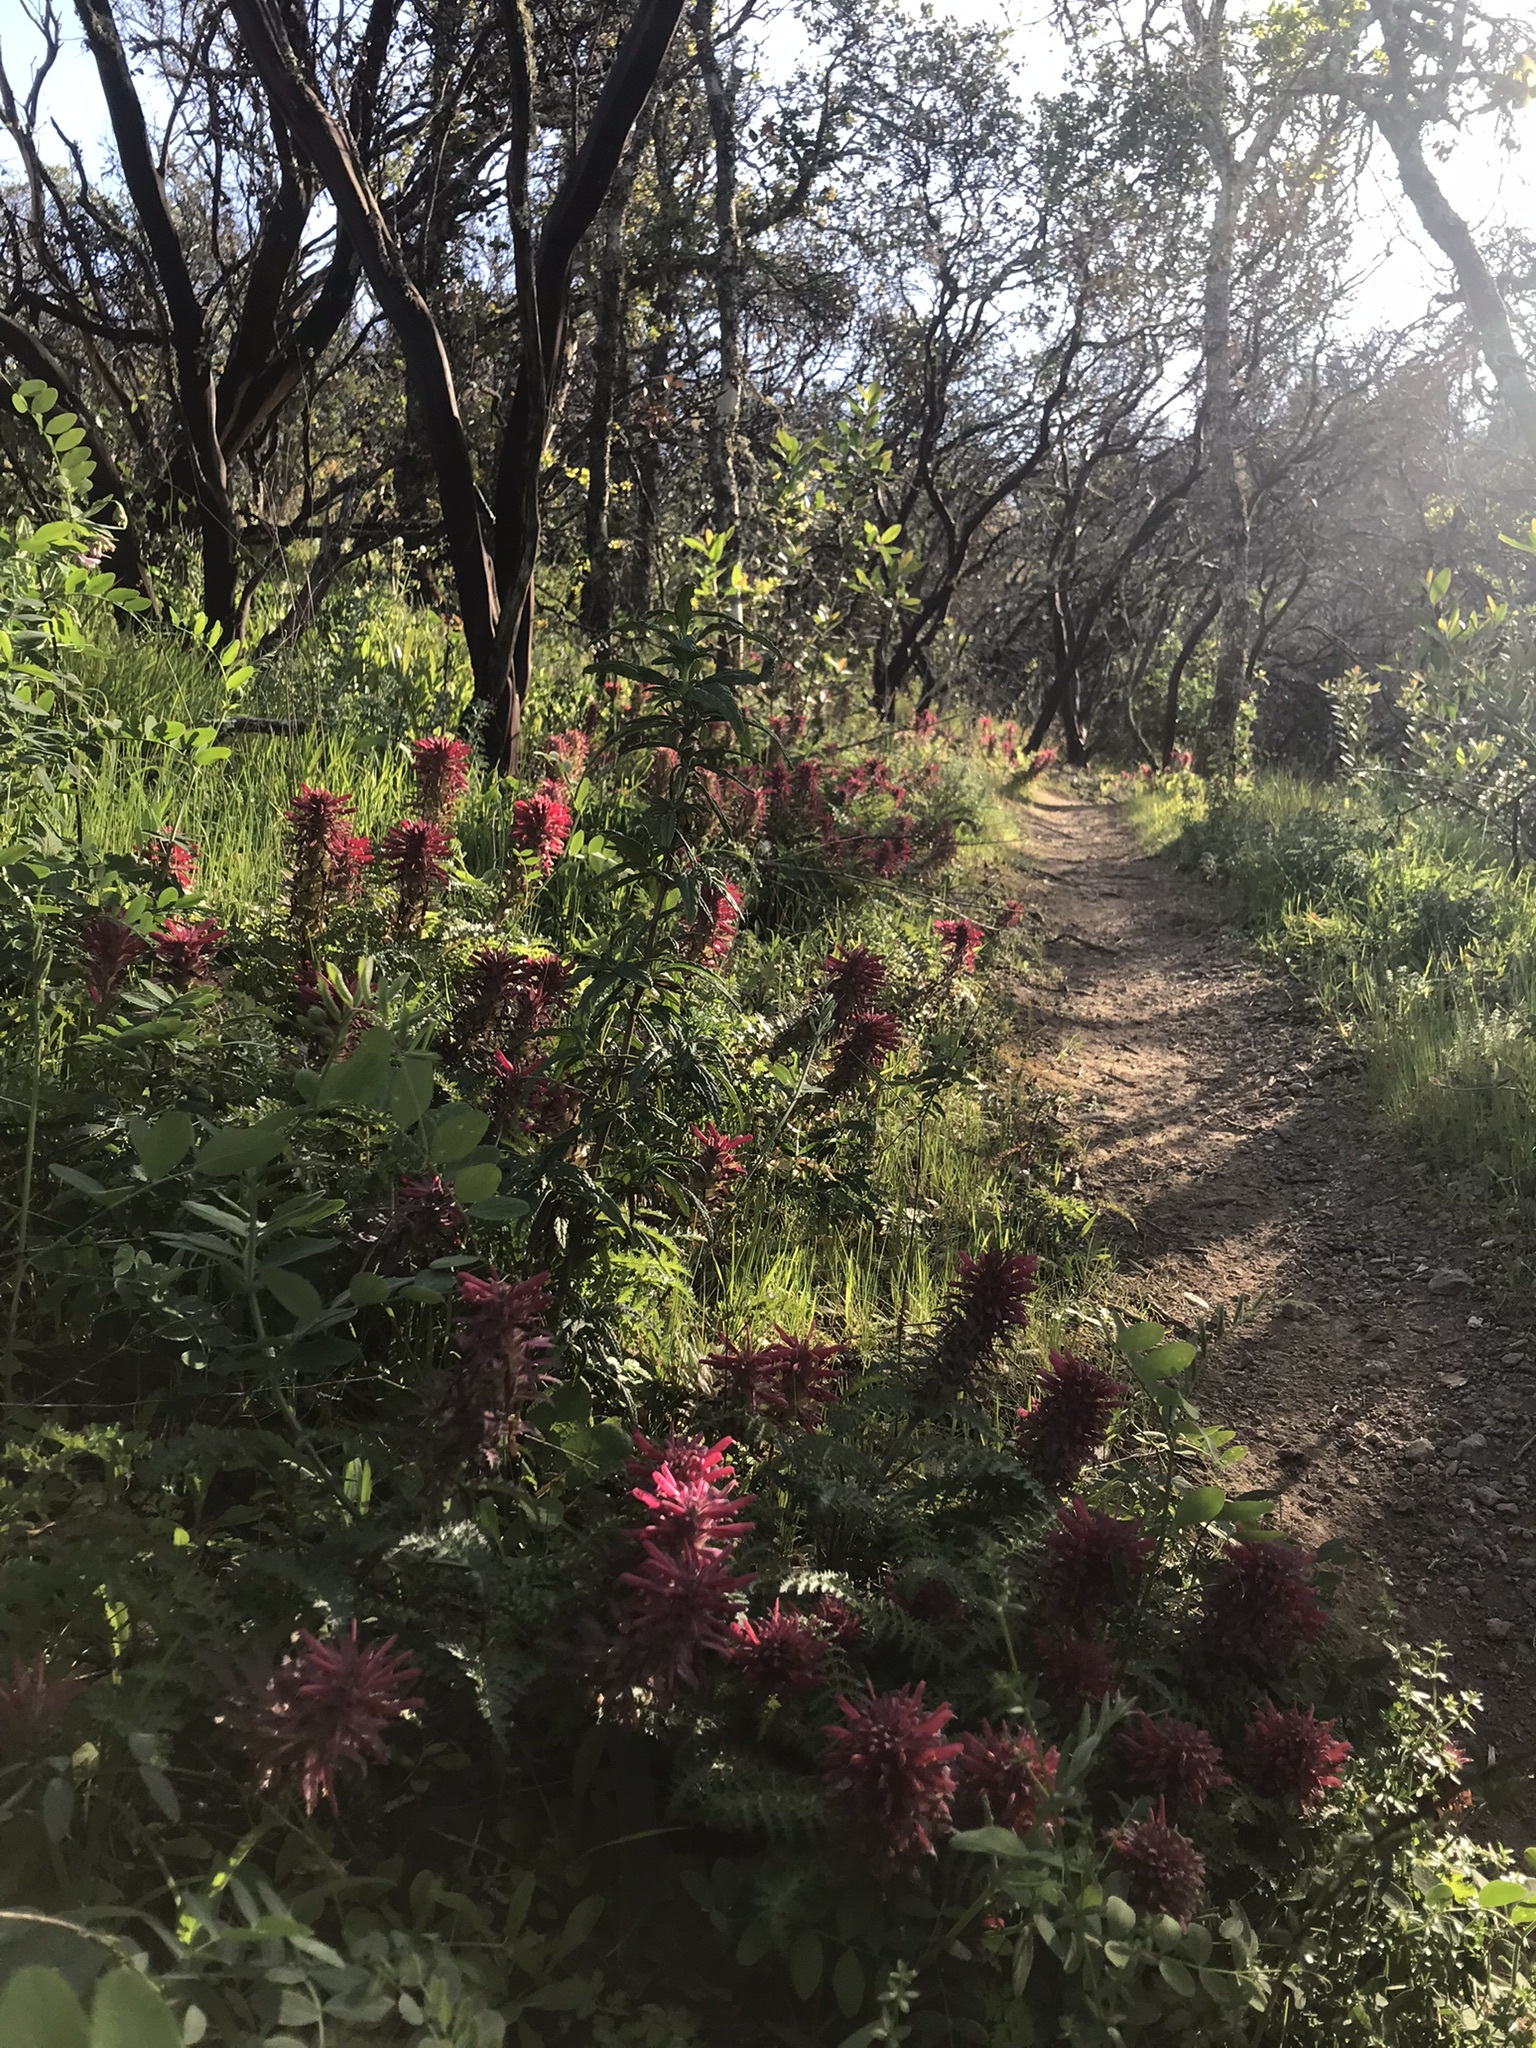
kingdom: Plantae
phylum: Tracheophyta
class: Magnoliopsida
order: Lamiales
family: Orobanchaceae
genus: Pedicularis
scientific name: Pedicularis densiflora
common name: Indian warrior
